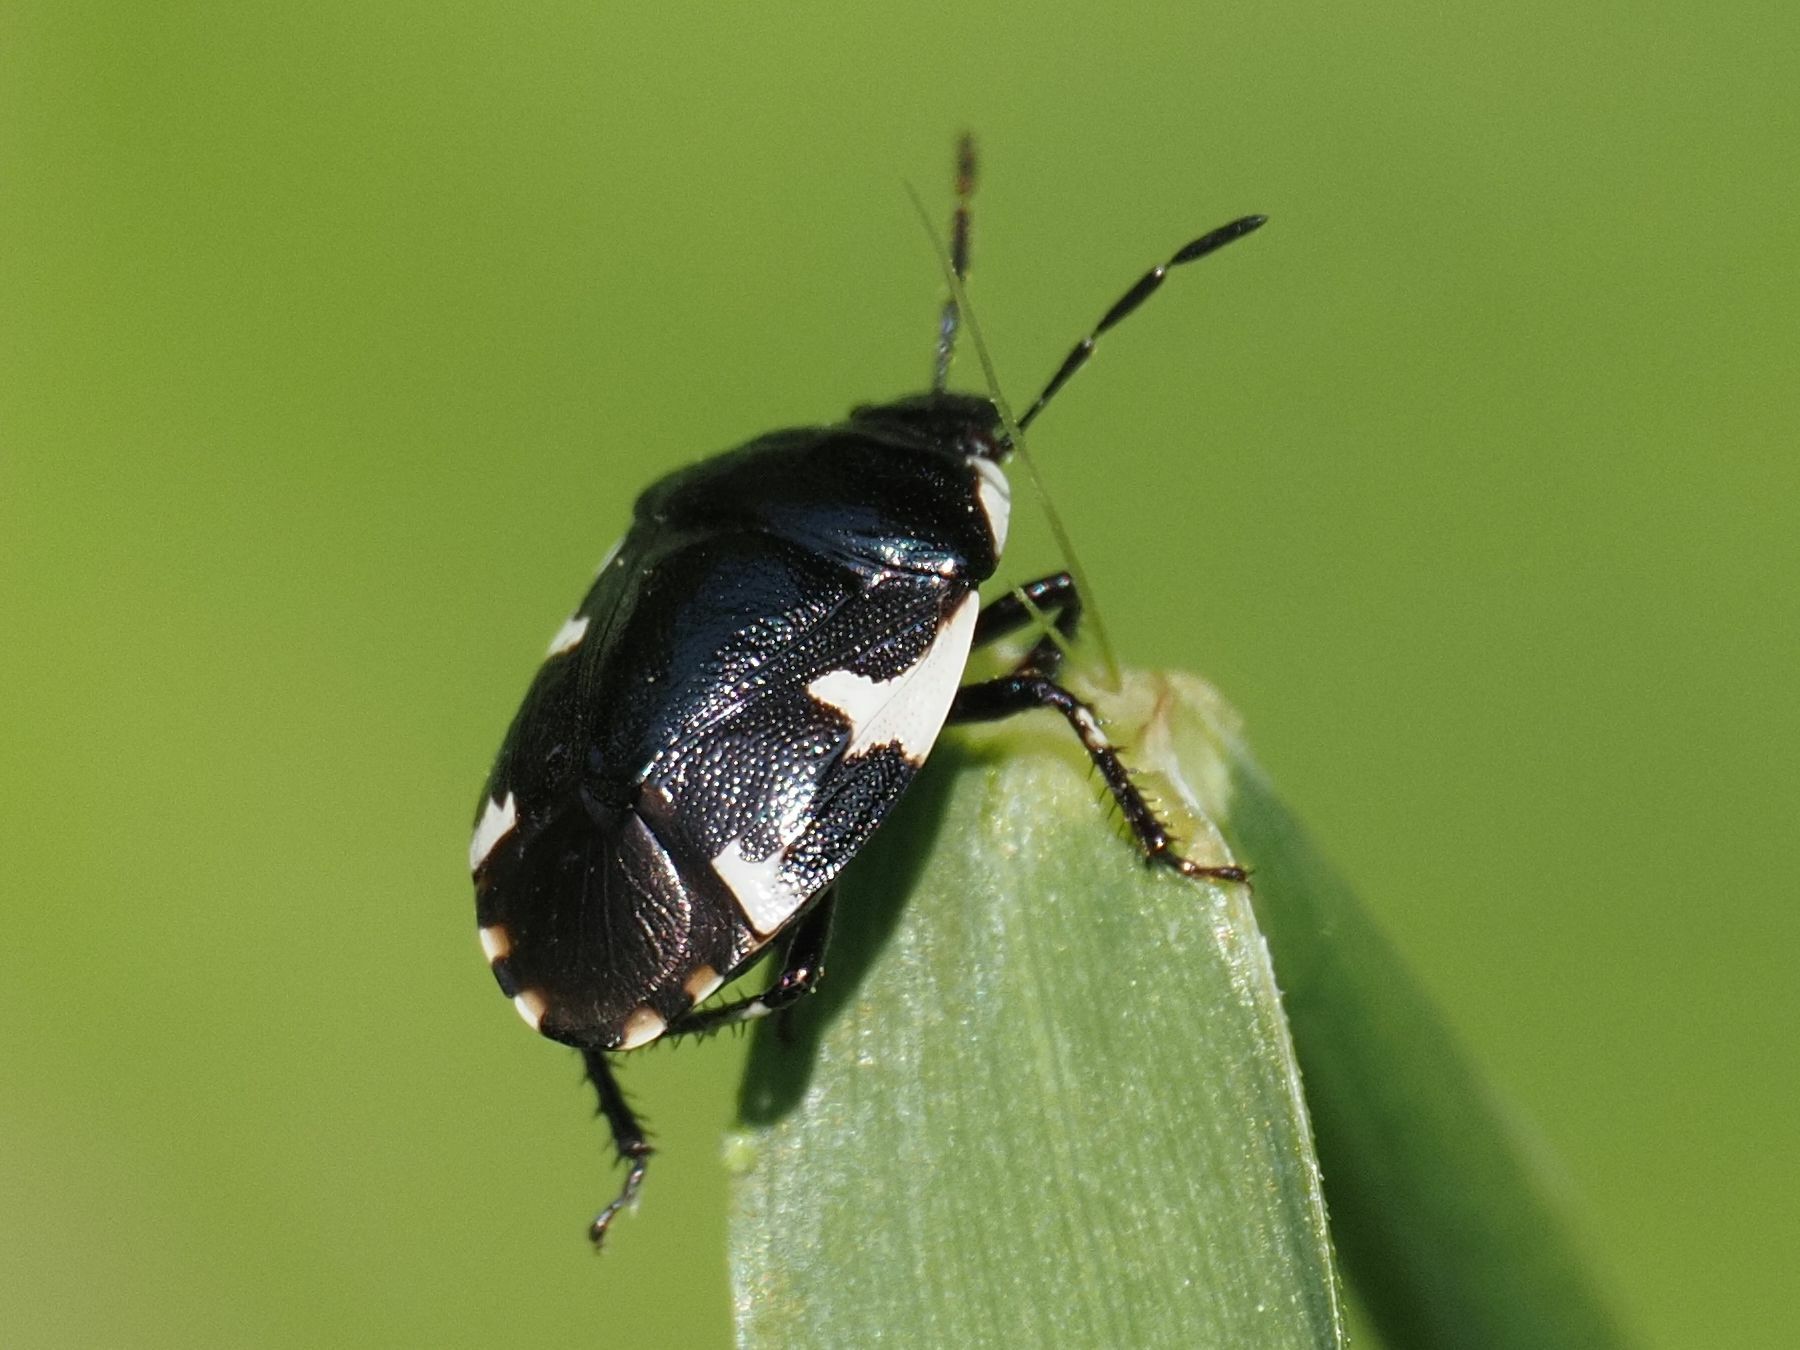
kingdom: Animalia
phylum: Arthropoda
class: Insecta
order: Hemiptera
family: Cydnidae
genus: Tritomegas
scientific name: Tritomegas sexmaculatus
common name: Rambur's pied shieldbug
